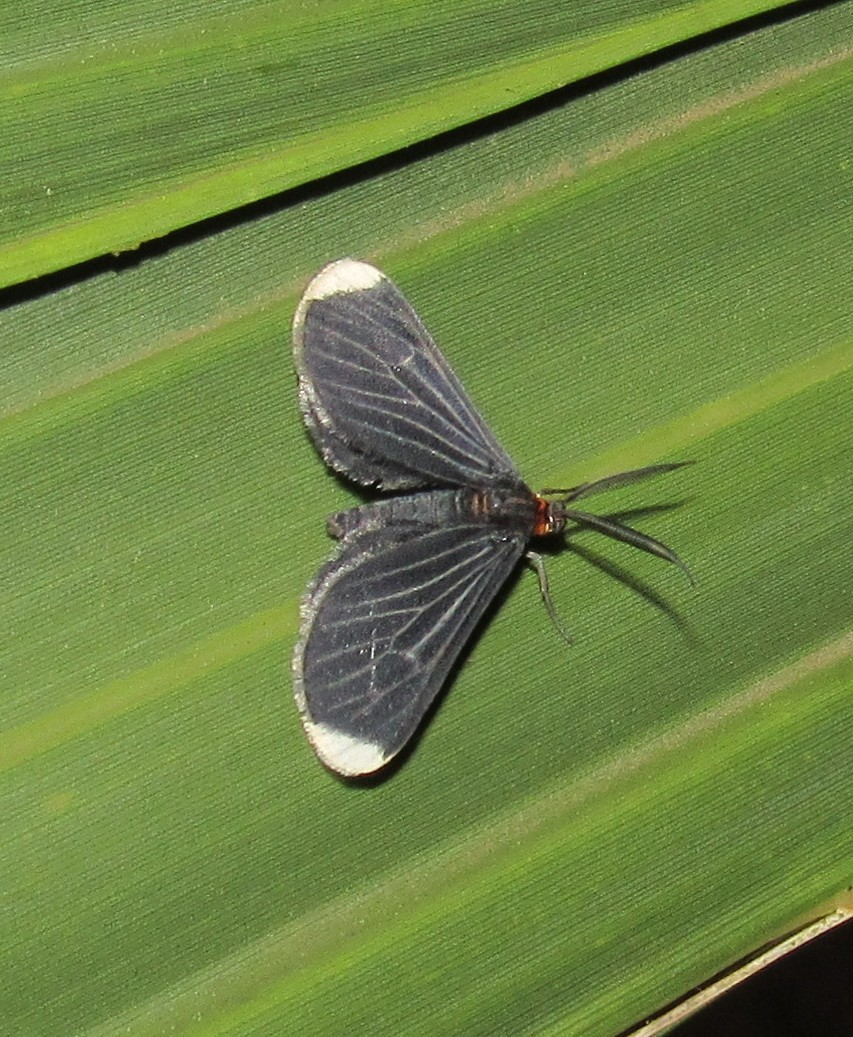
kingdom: Animalia
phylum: Arthropoda
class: Insecta
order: Lepidoptera
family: Geometridae
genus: Melanchroia
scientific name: Melanchroia chephise
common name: White-tipped black
